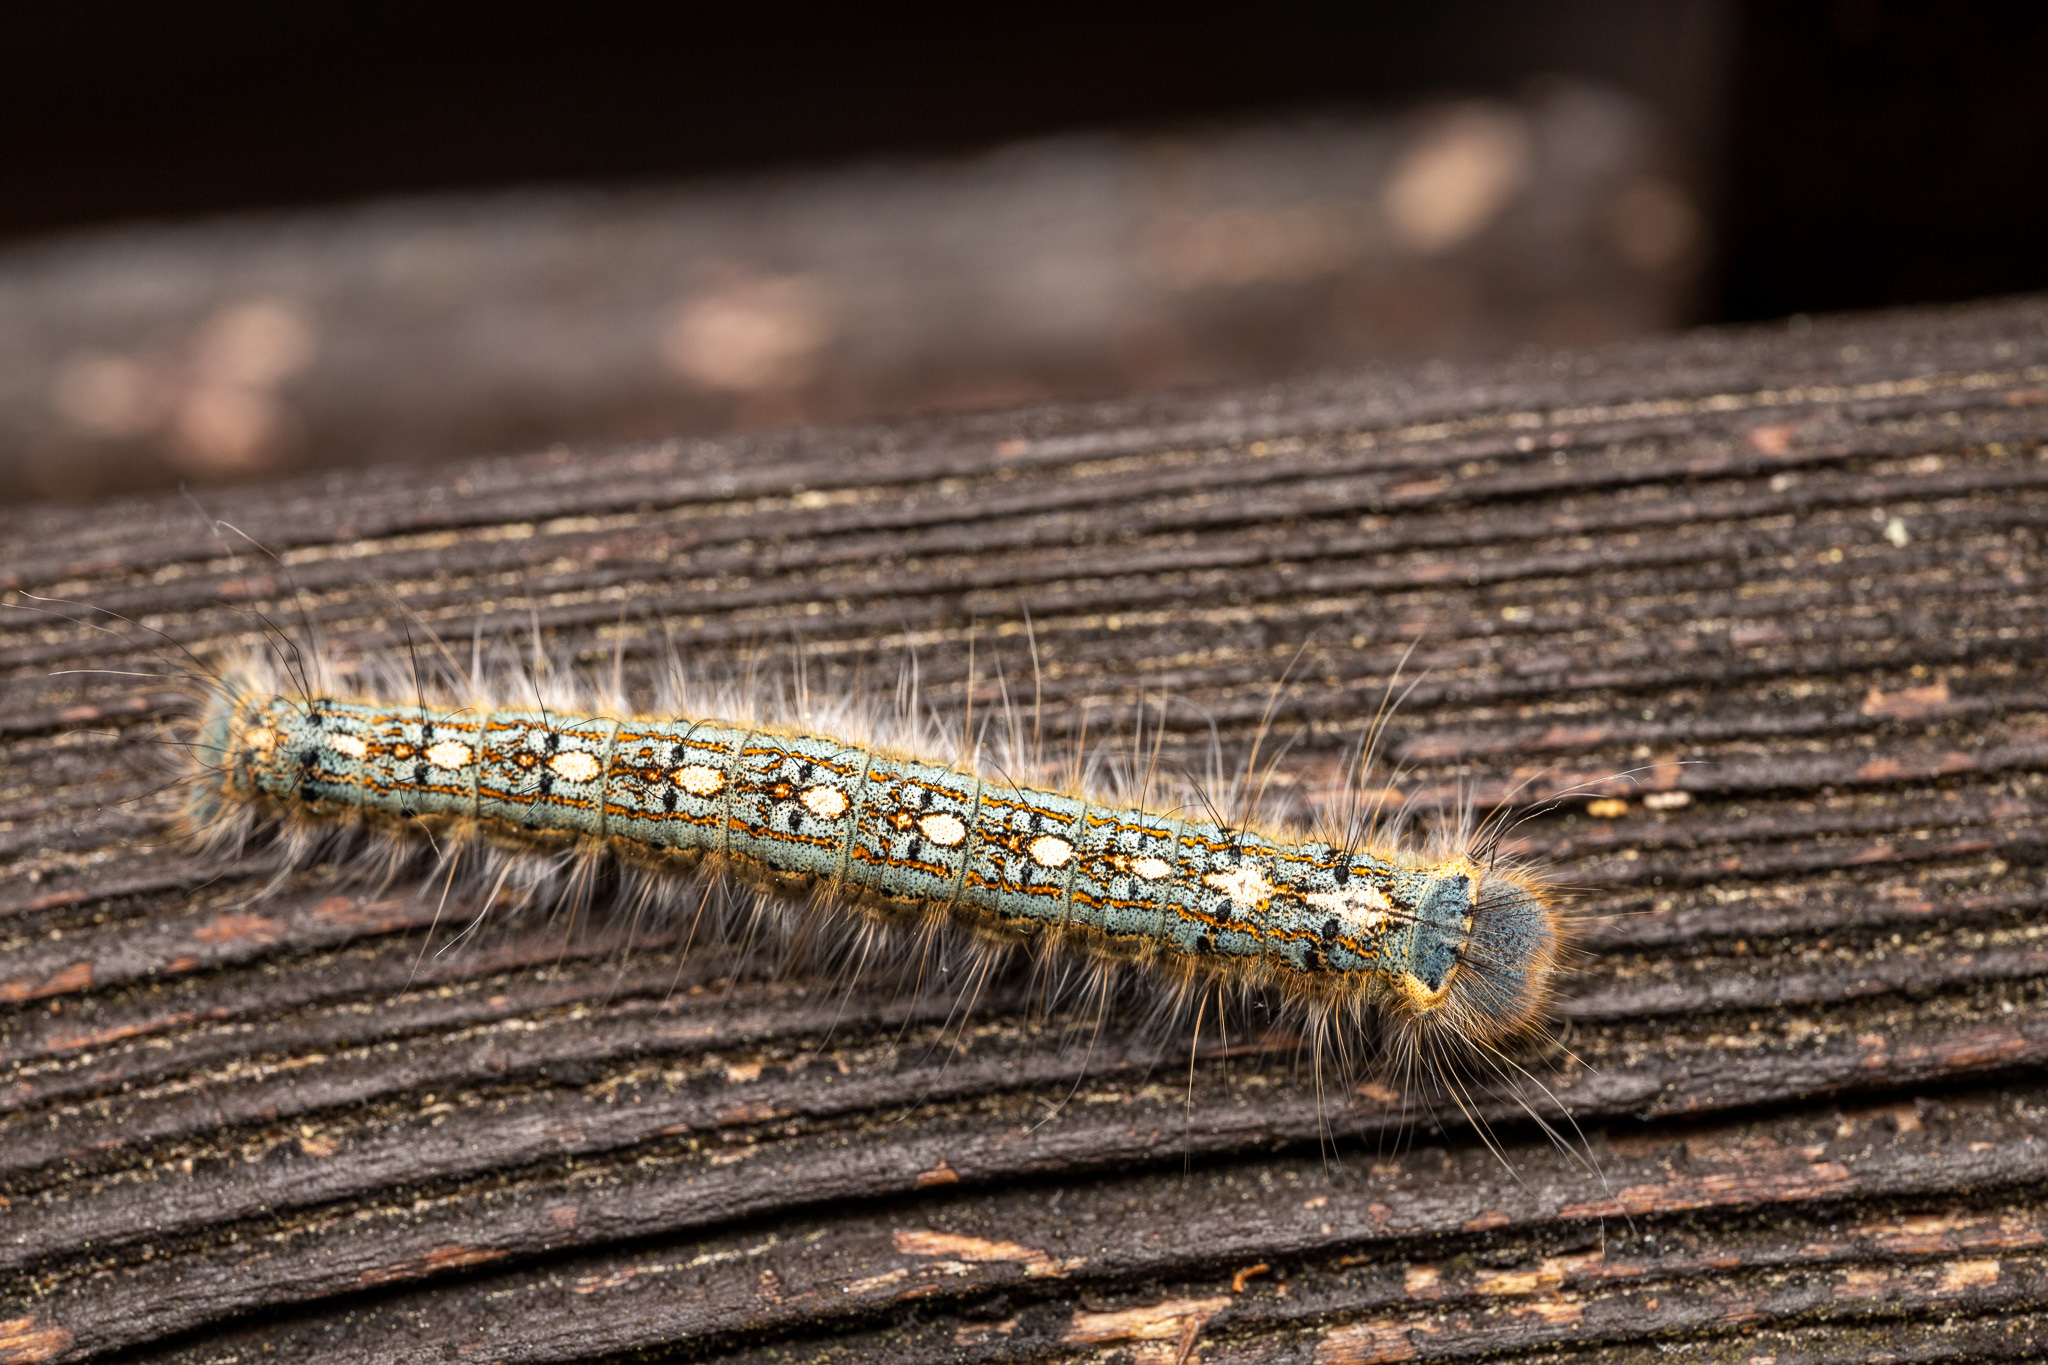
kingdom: Animalia
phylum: Arthropoda
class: Insecta
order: Lepidoptera
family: Lasiocampidae
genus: Malacosoma
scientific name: Malacosoma disstria
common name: Forest tent caterpillar
